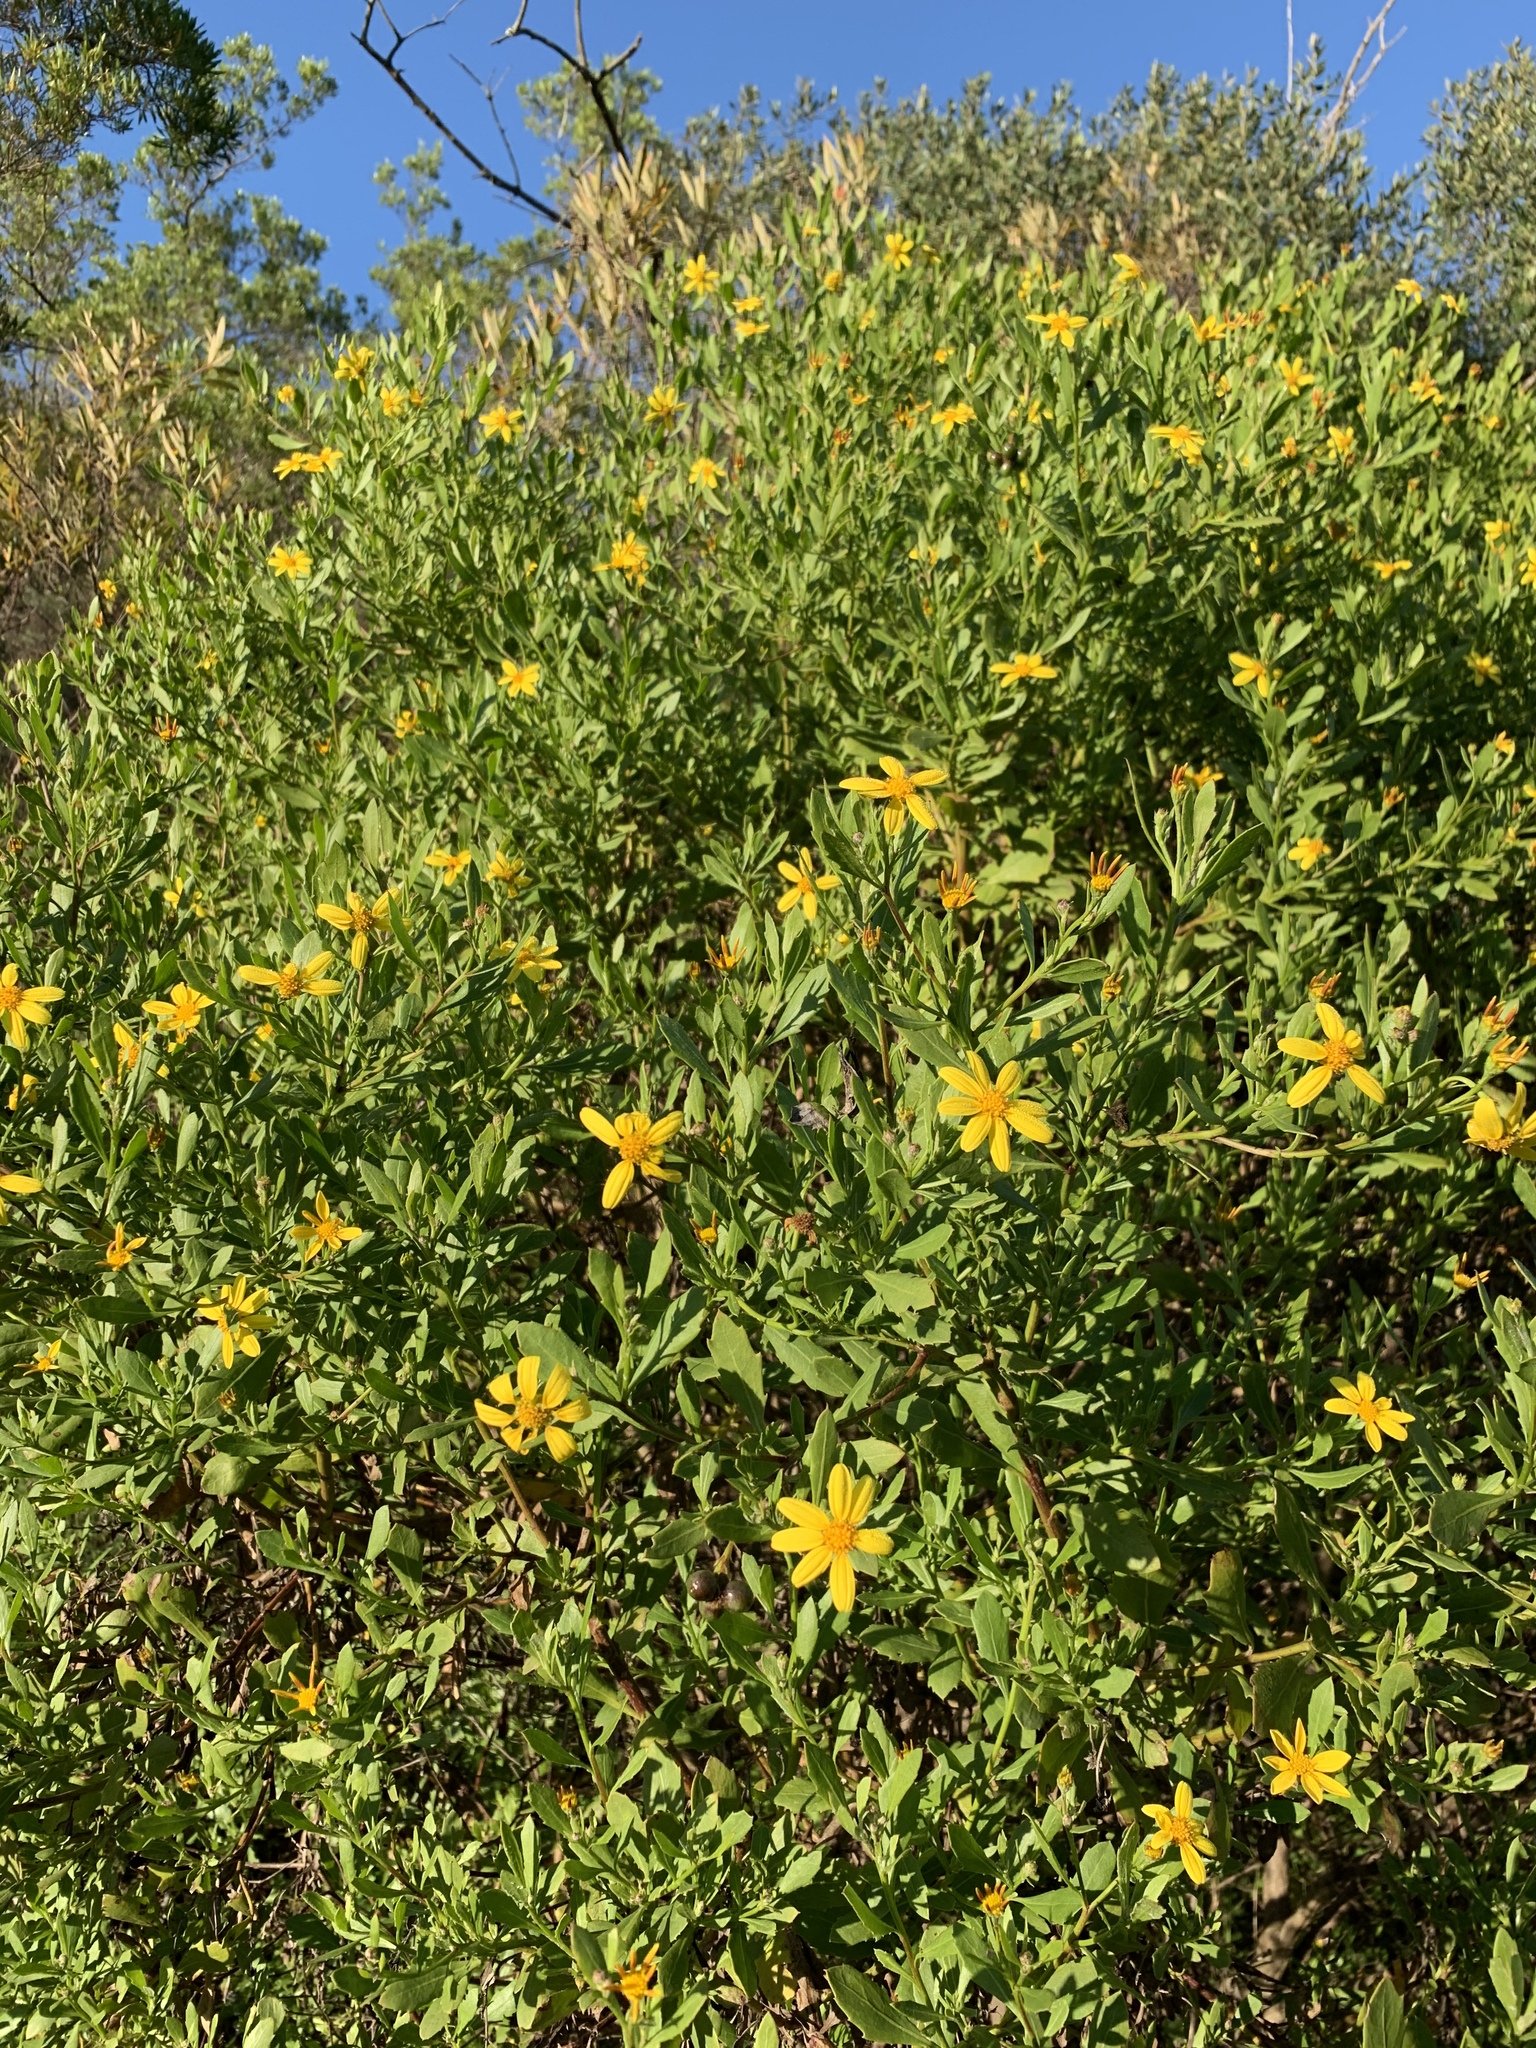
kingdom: Plantae
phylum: Tracheophyta
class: Magnoliopsida
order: Asterales
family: Asteraceae
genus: Osteospermum
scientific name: Osteospermum moniliferum
